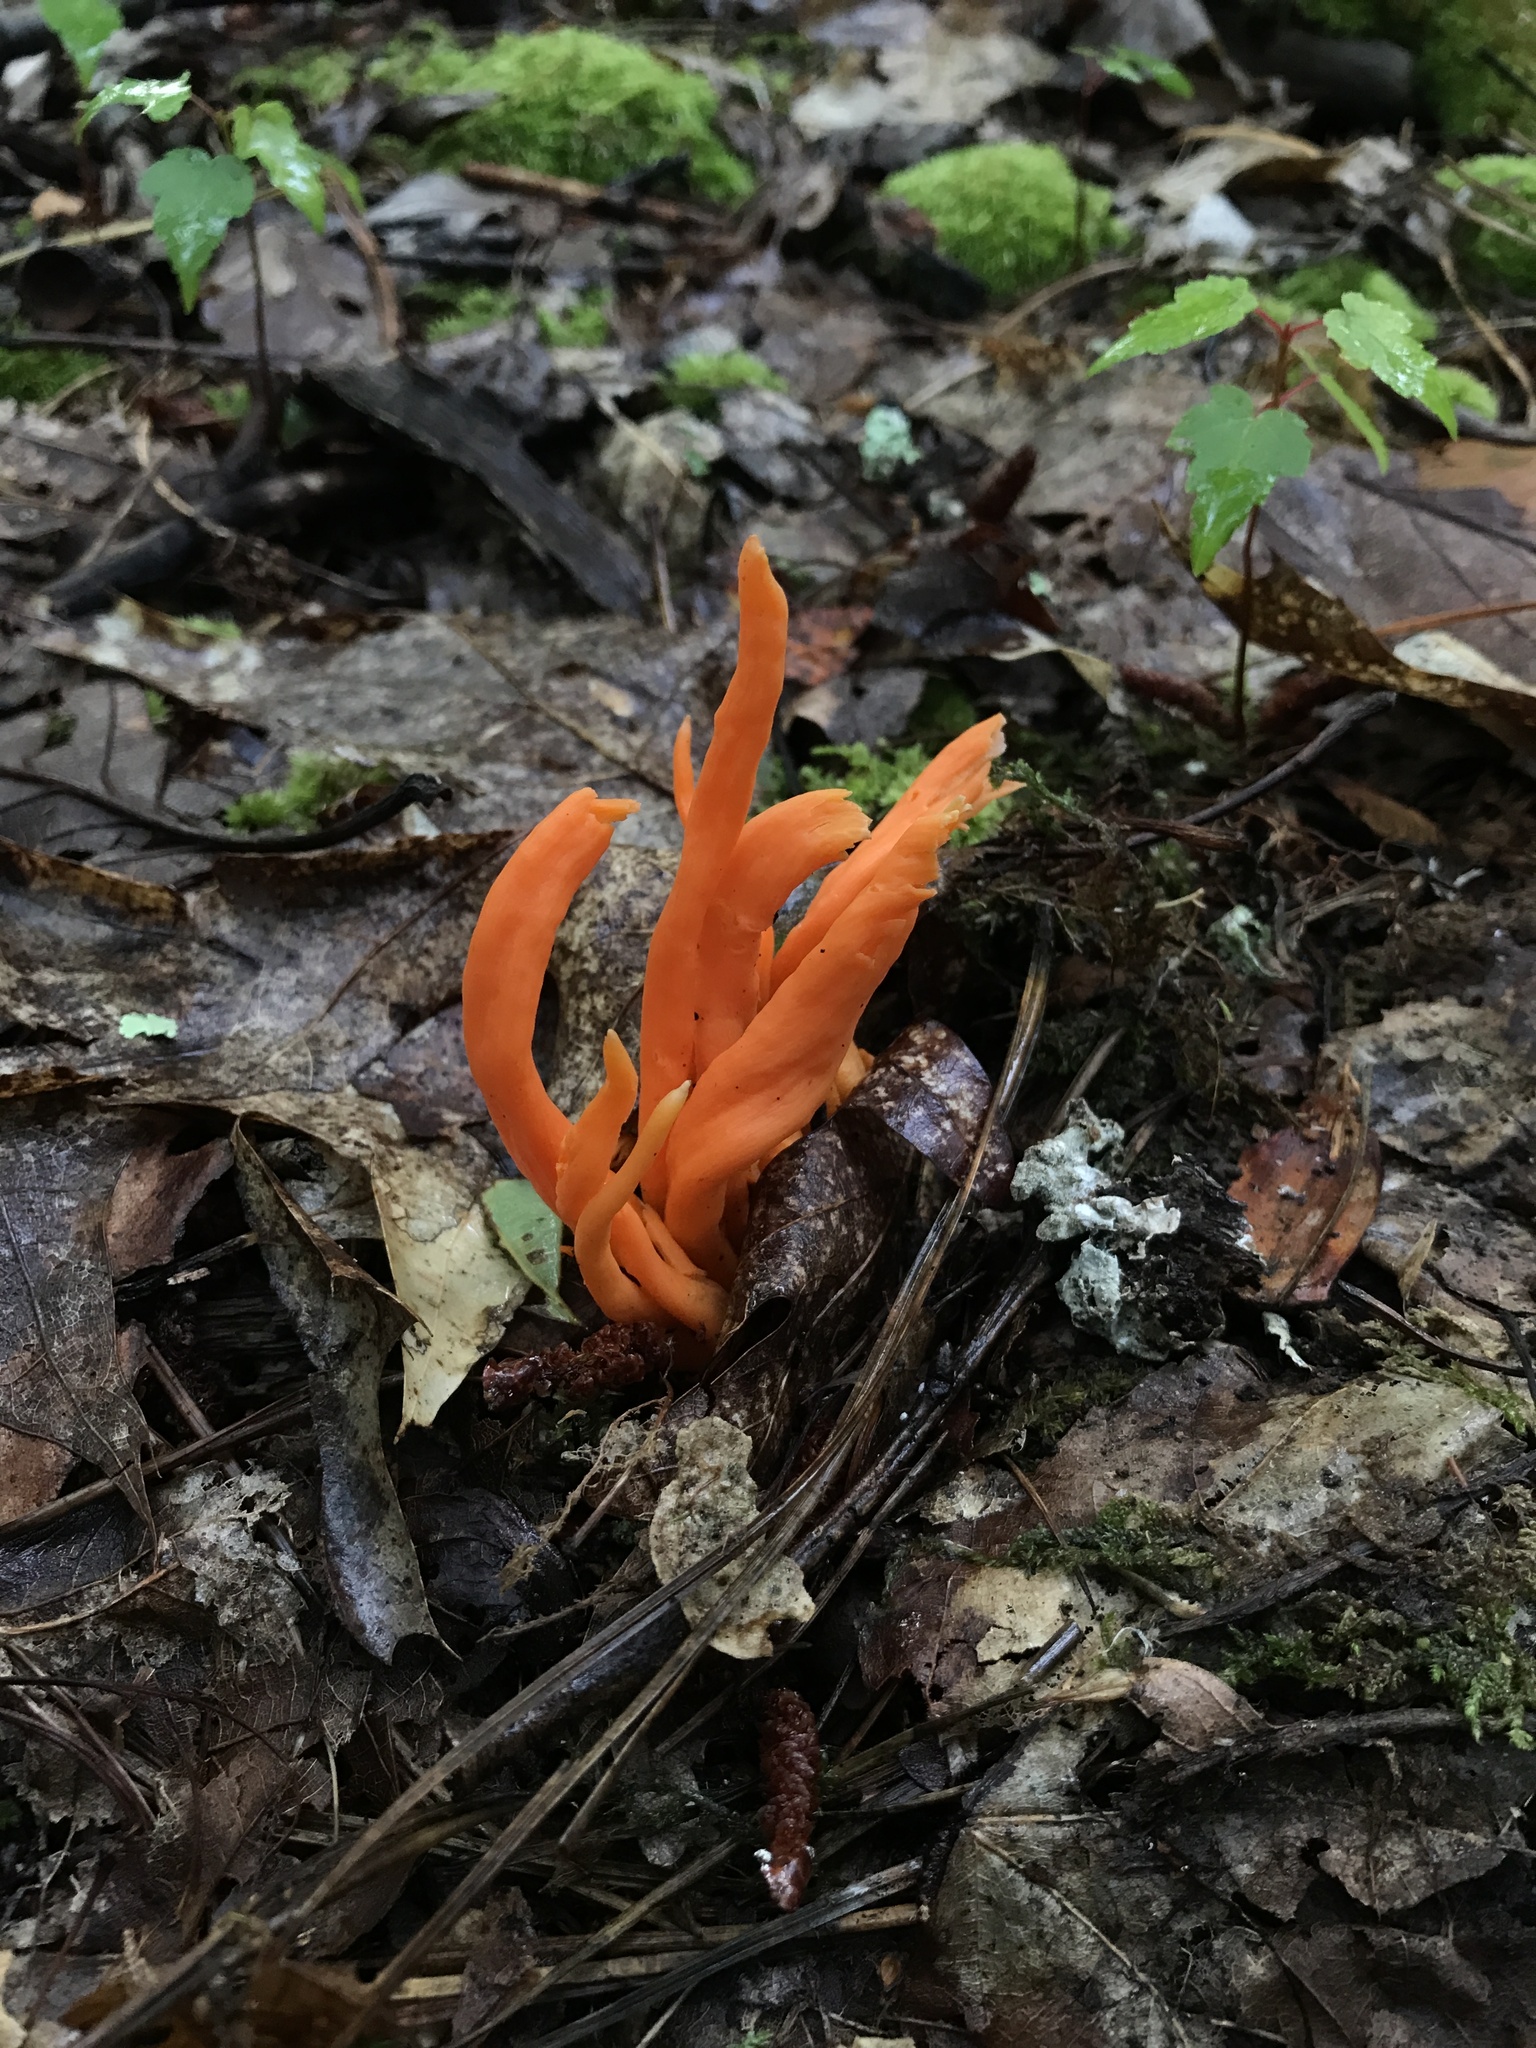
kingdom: Fungi
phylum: Basidiomycota
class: Agaricomycetes
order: Agaricales
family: Clavariaceae
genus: Clavulinopsis
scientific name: Clavulinopsis aurantiocinnabarina
